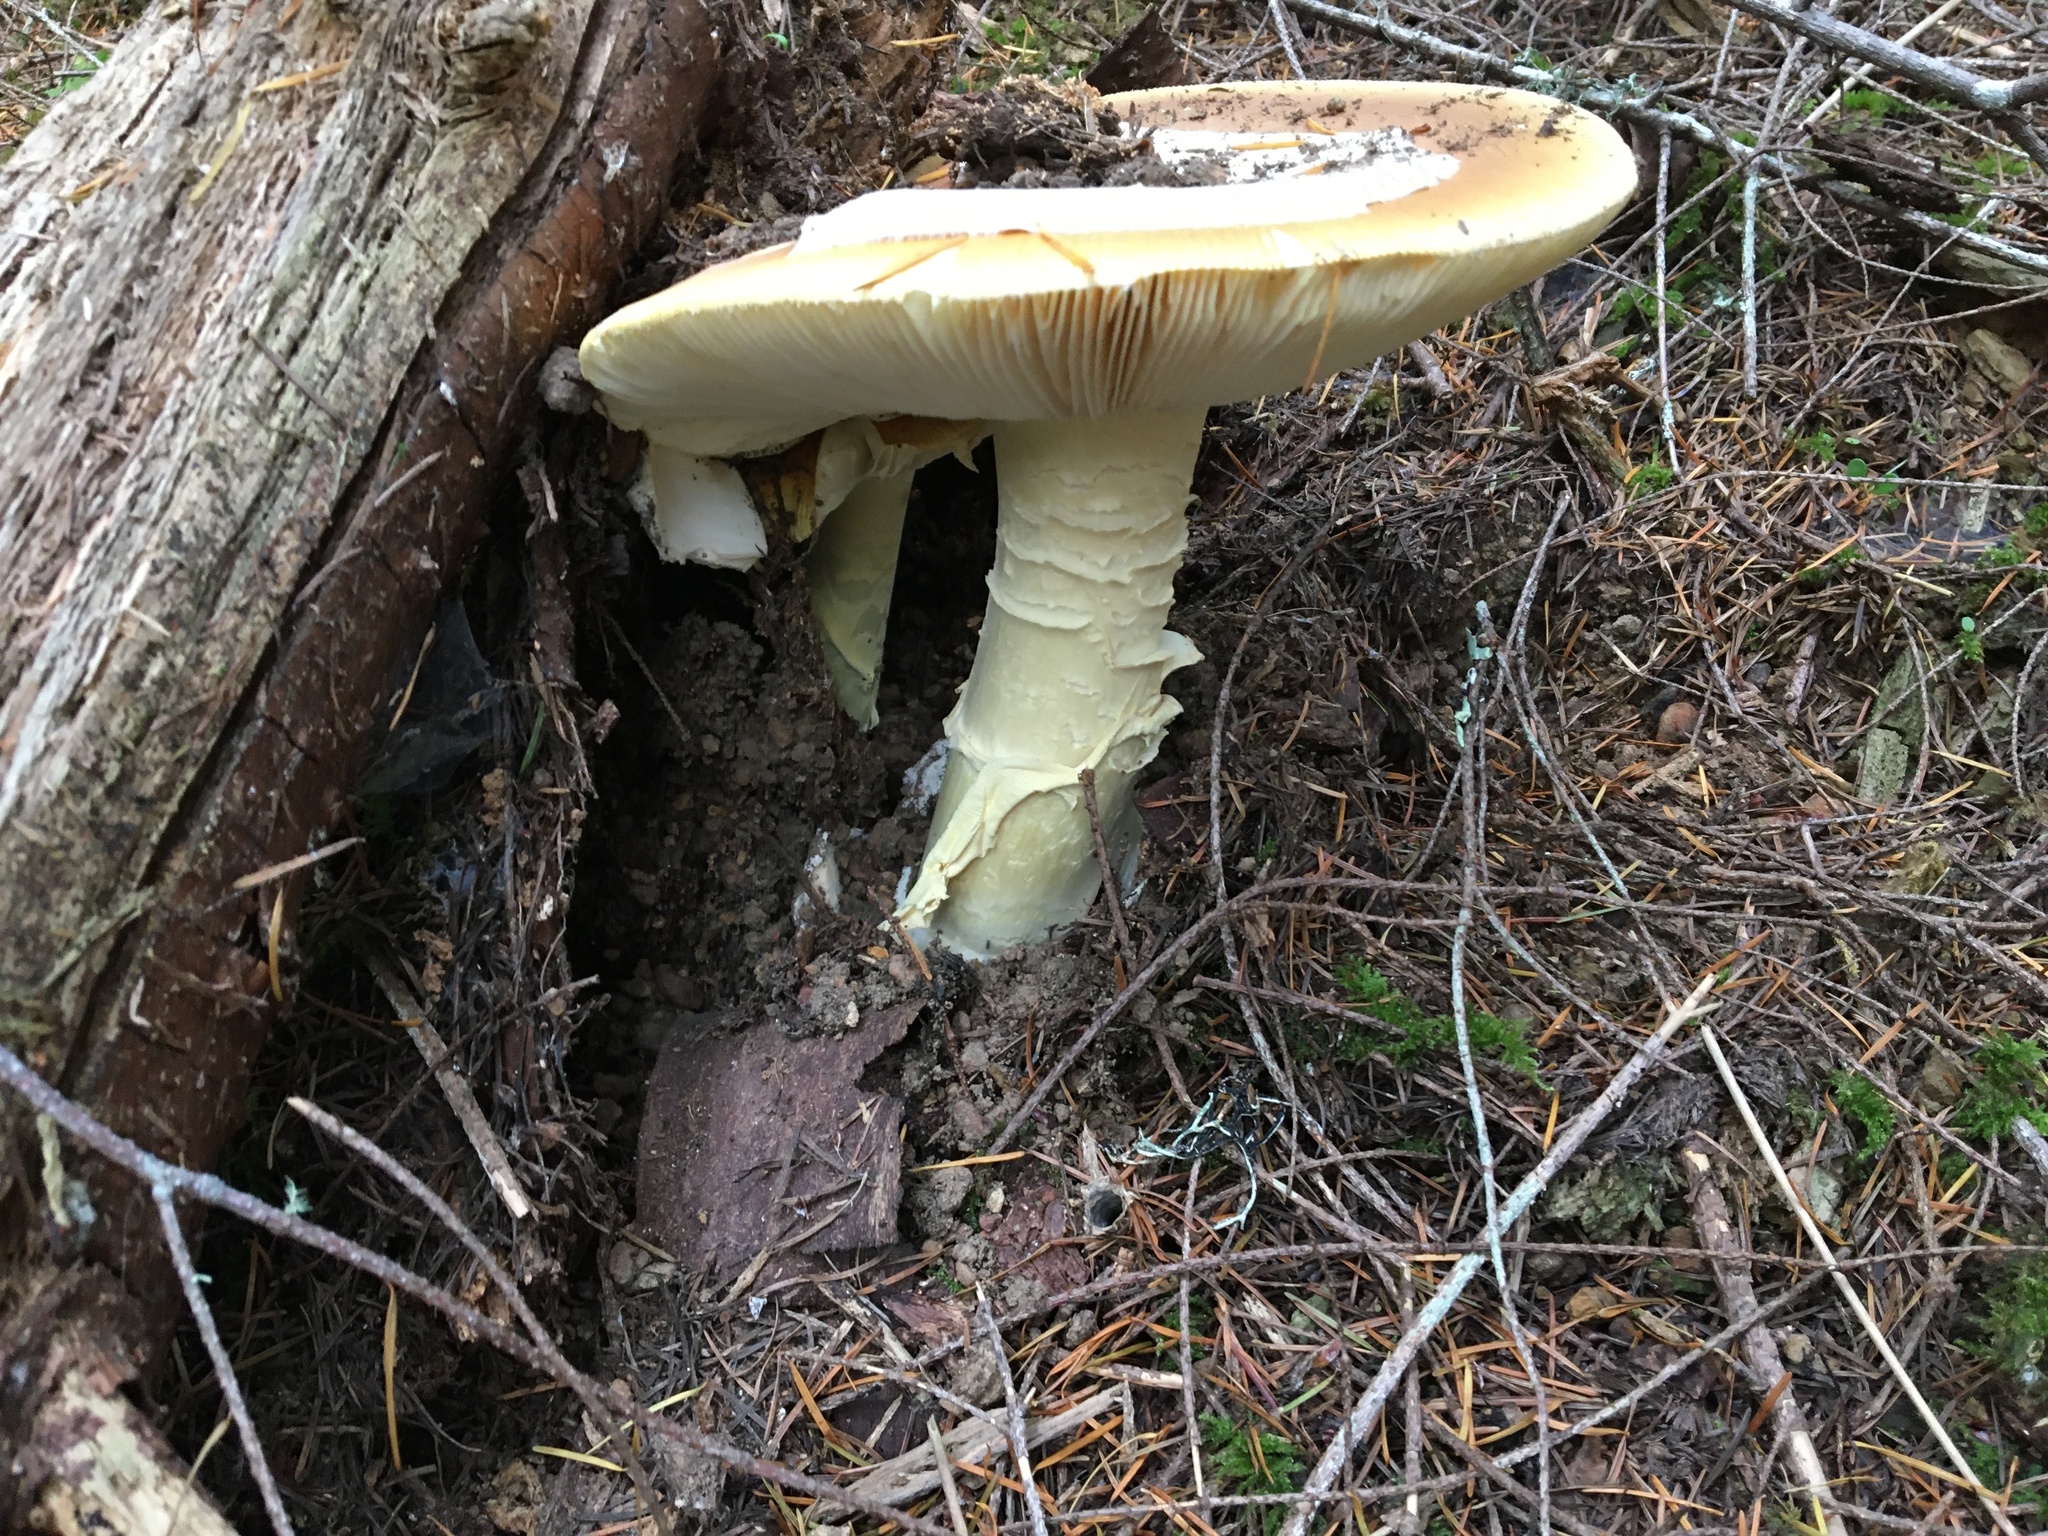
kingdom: Fungi
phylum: Basidiomycota
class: Agaricomycetes
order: Agaricales
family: Amanitaceae
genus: Amanita
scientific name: Amanita calyptroderma
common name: Coccora
